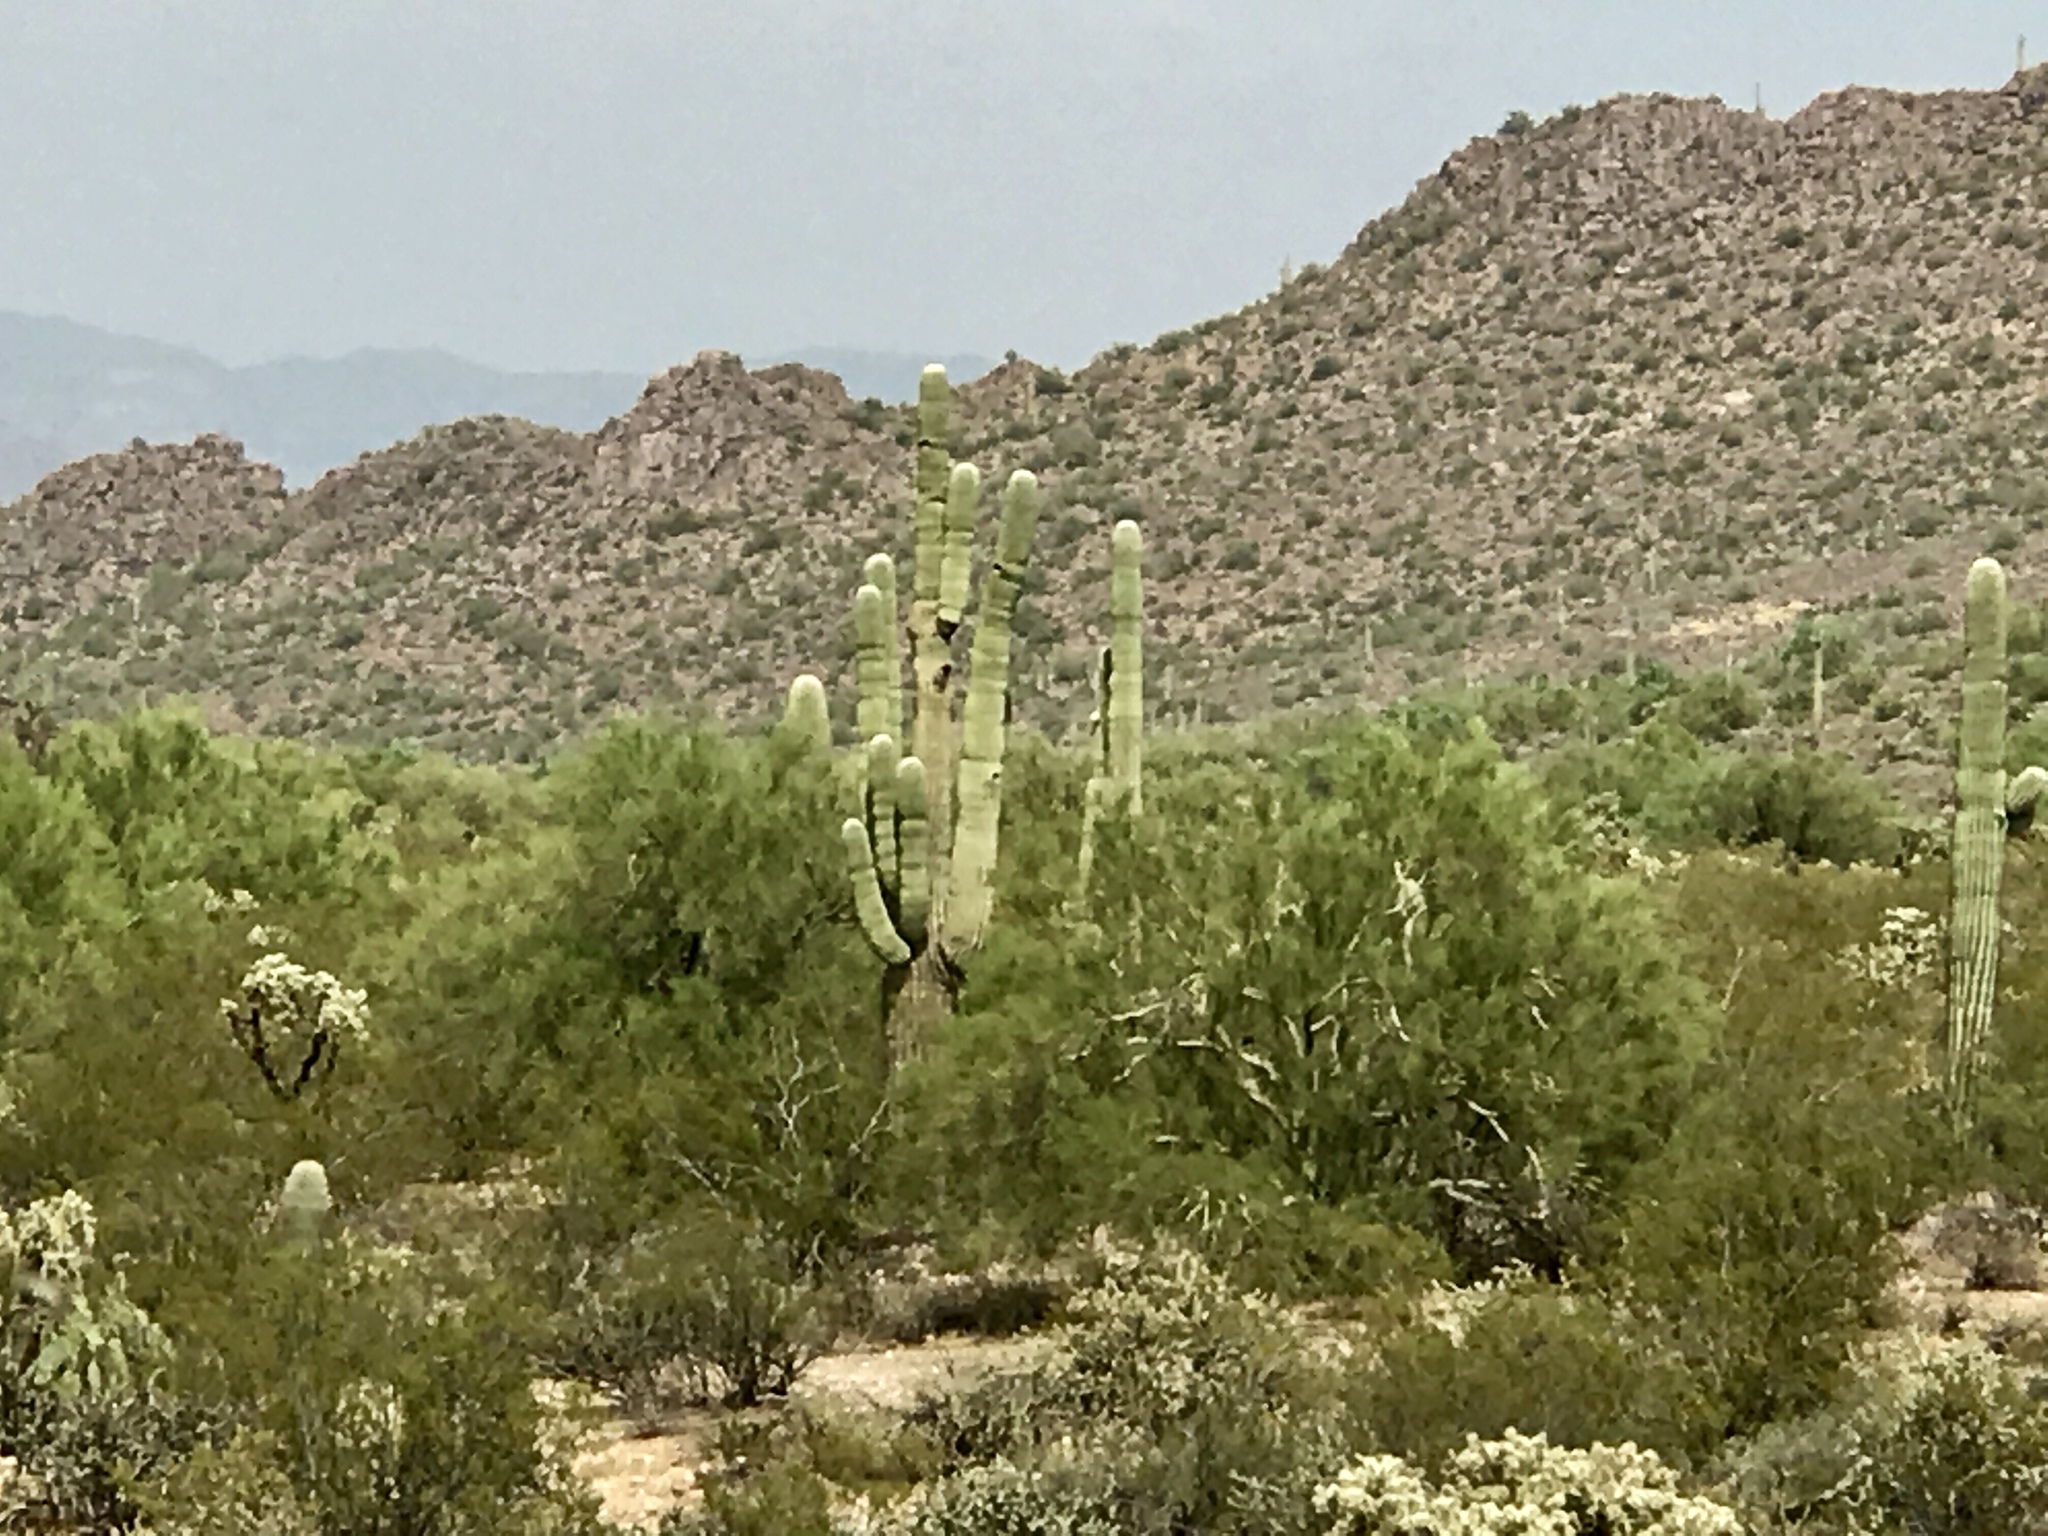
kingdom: Plantae
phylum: Tracheophyta
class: Magnoliopsida
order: Caryophyllales
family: Cactaceae
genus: Carnegiea
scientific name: Carnegiea gigantea
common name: Saguaro
